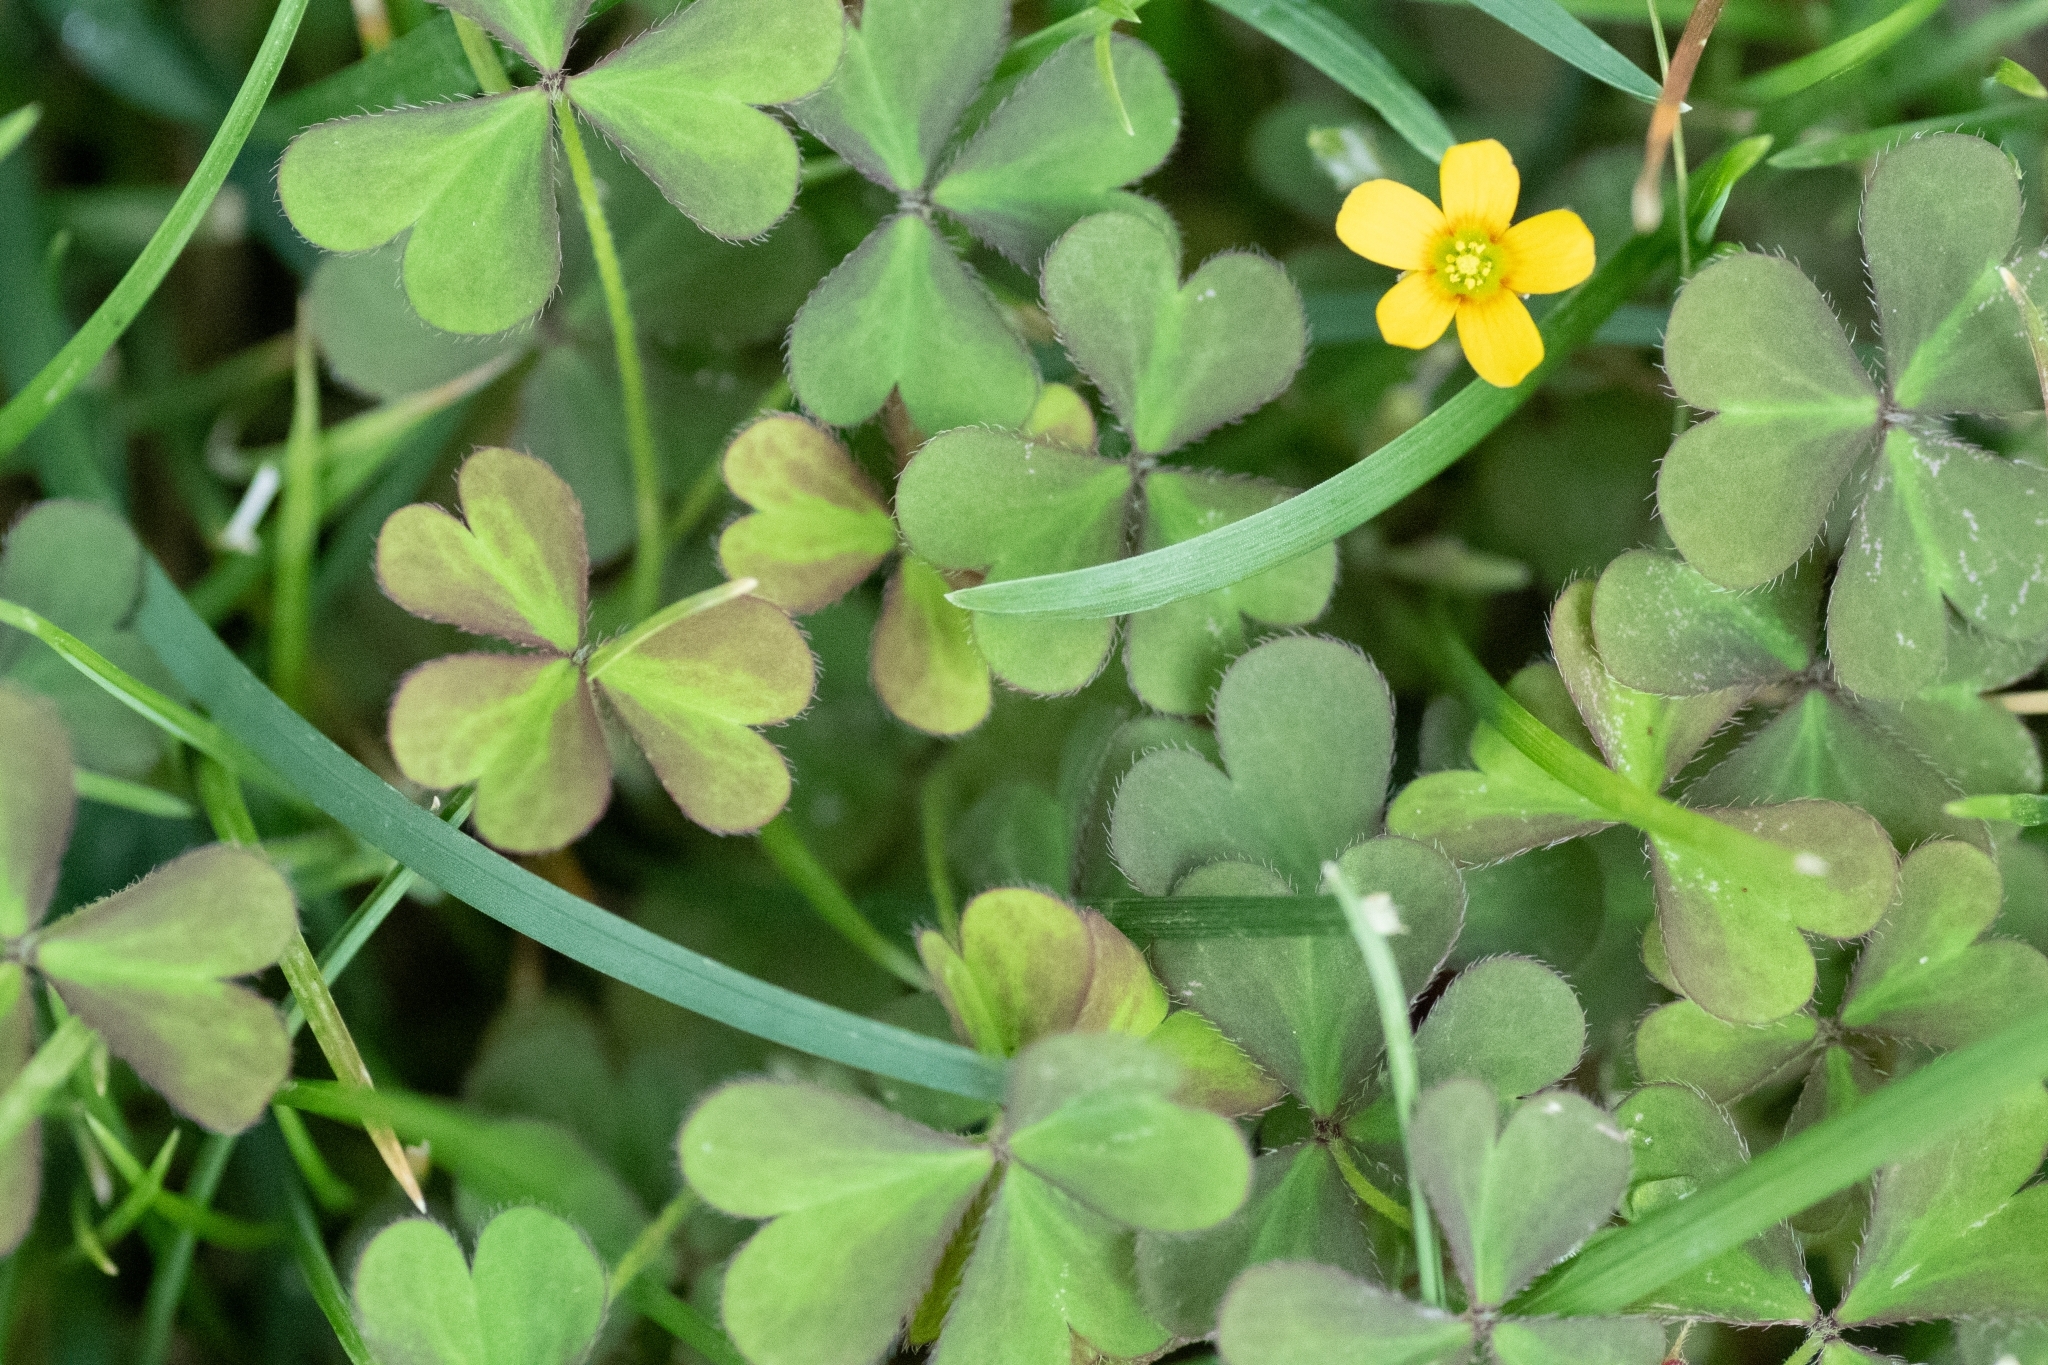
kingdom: Plantae
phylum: Tracheophyta
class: Magnoliopsida
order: Oxalidales
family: Oxalidaceae
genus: Oxalis
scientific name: Oxalis corniculata
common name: Procumbent yellow-sorrel
